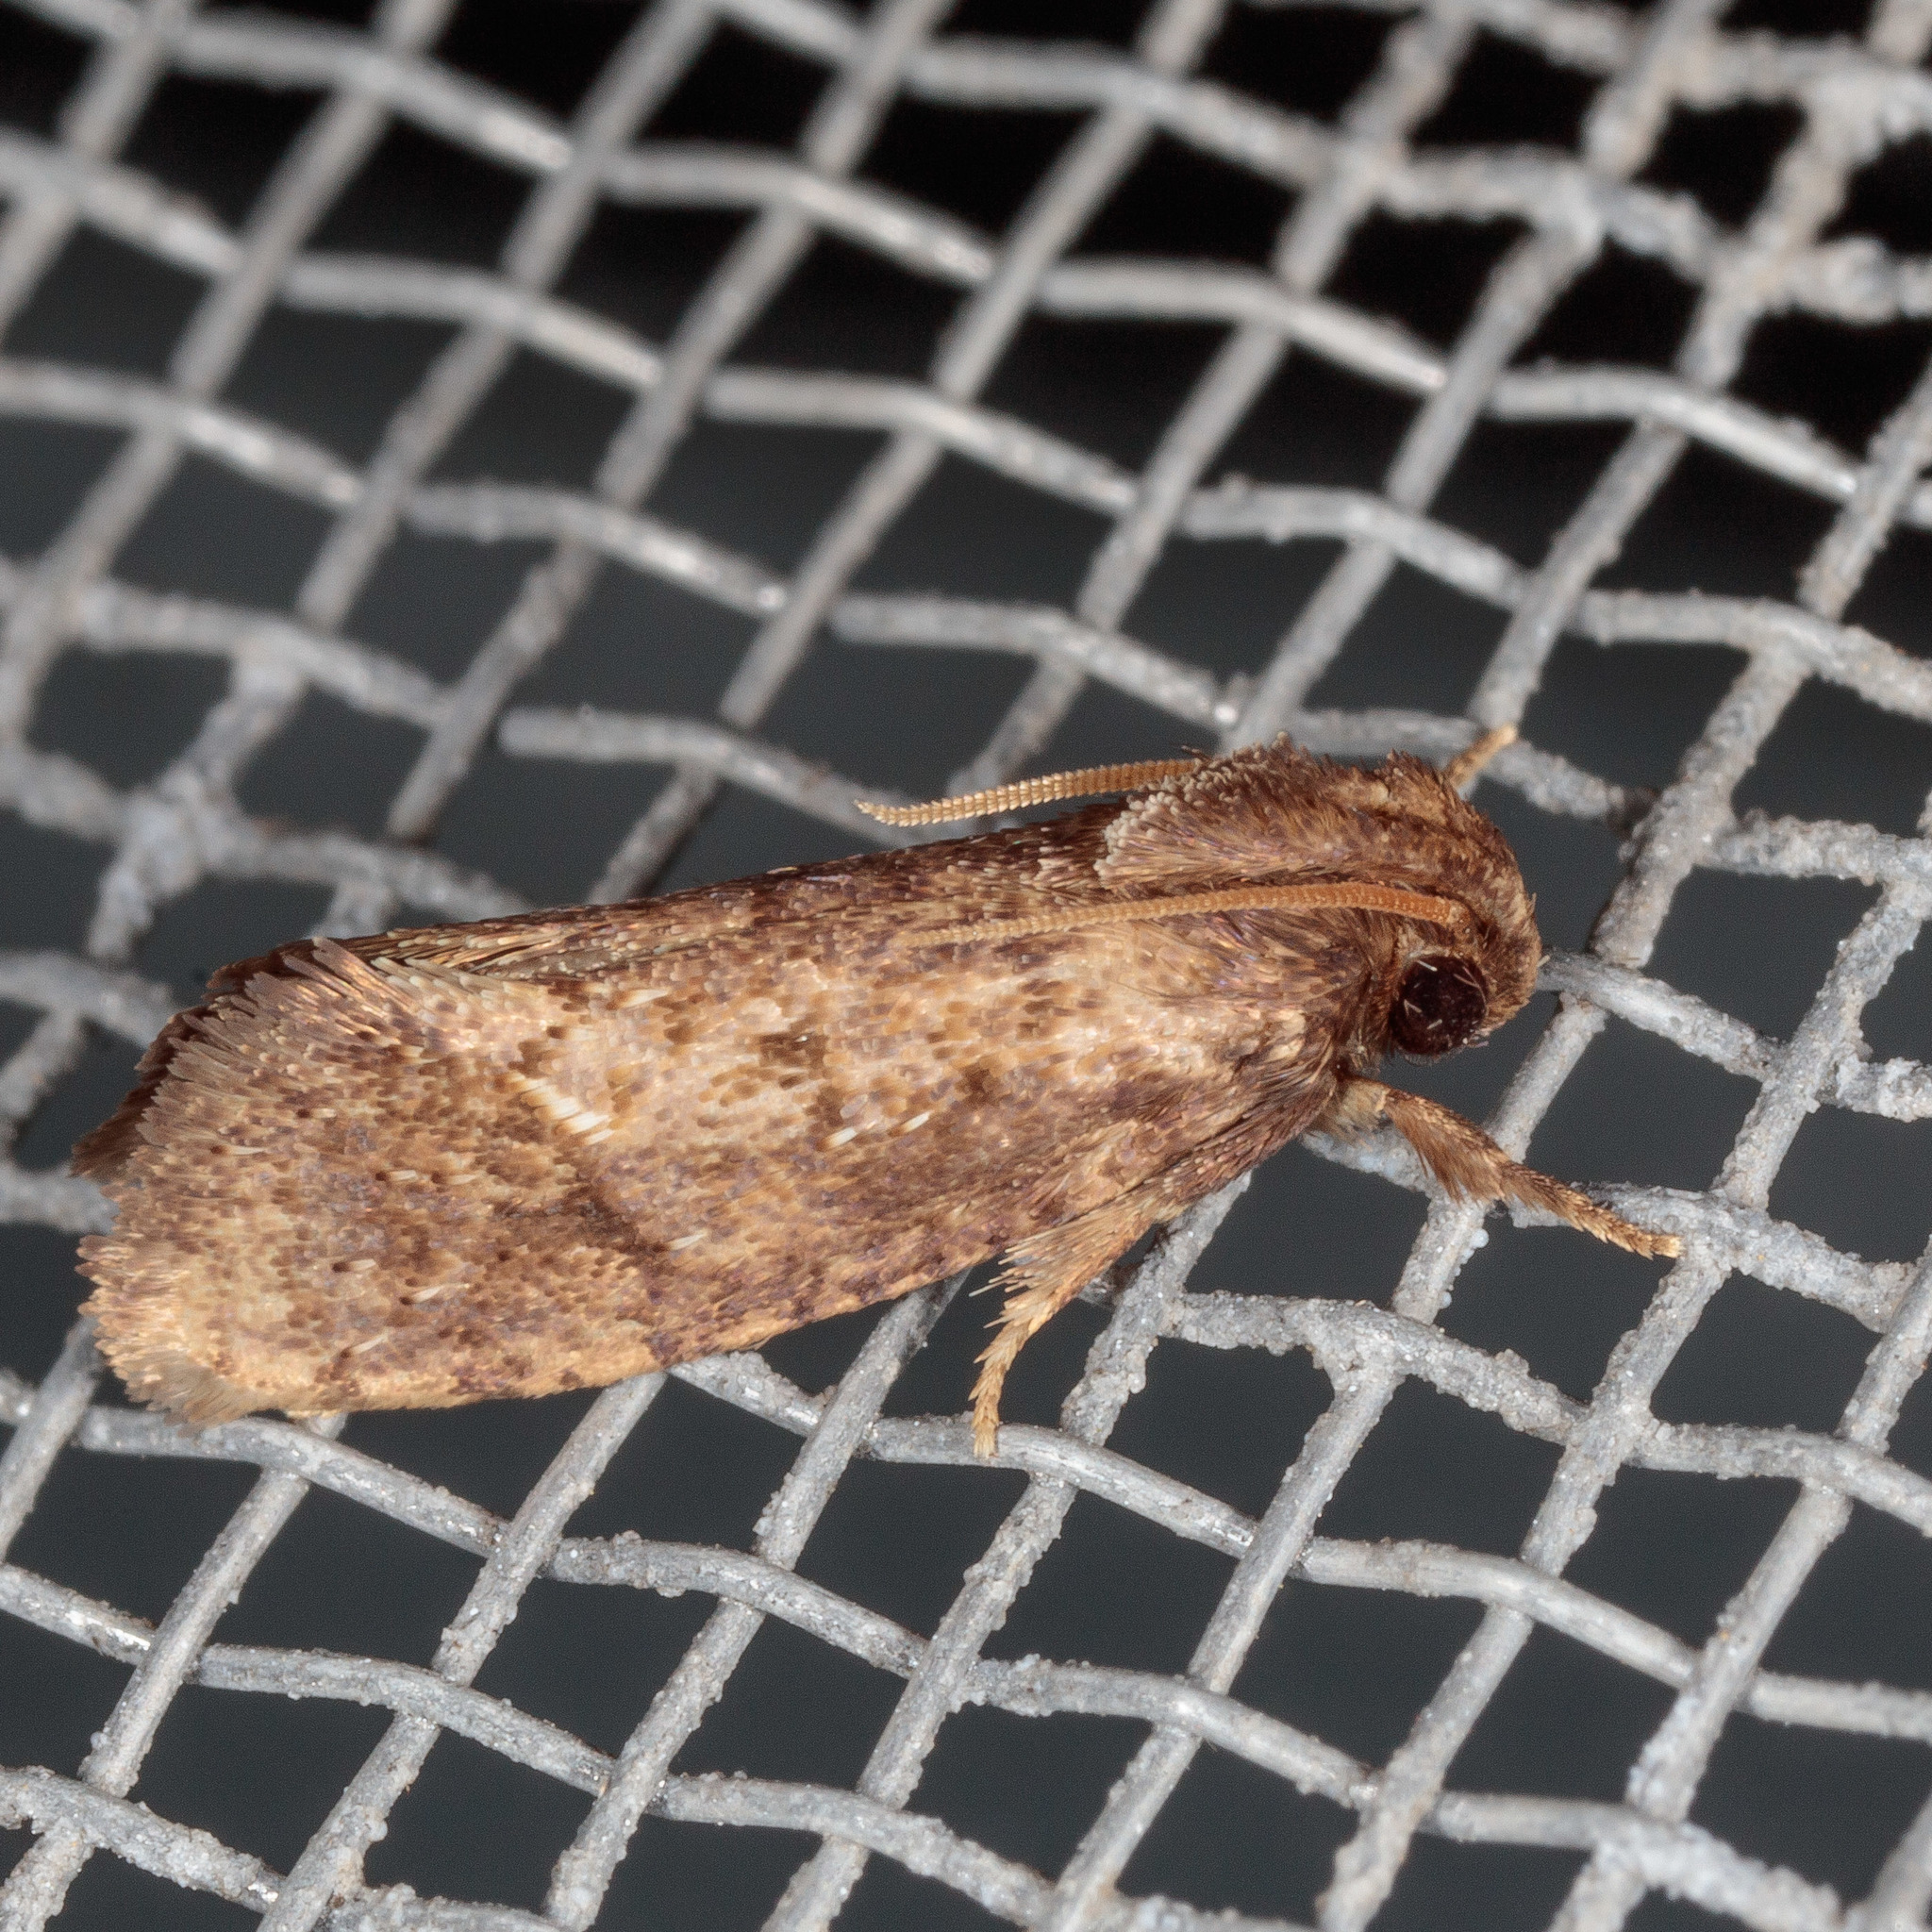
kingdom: Animalia
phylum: Arthropoda
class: Insecta
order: Lepidoptera
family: Tineidae
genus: Acrolophus
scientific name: Acrolophus texanella
